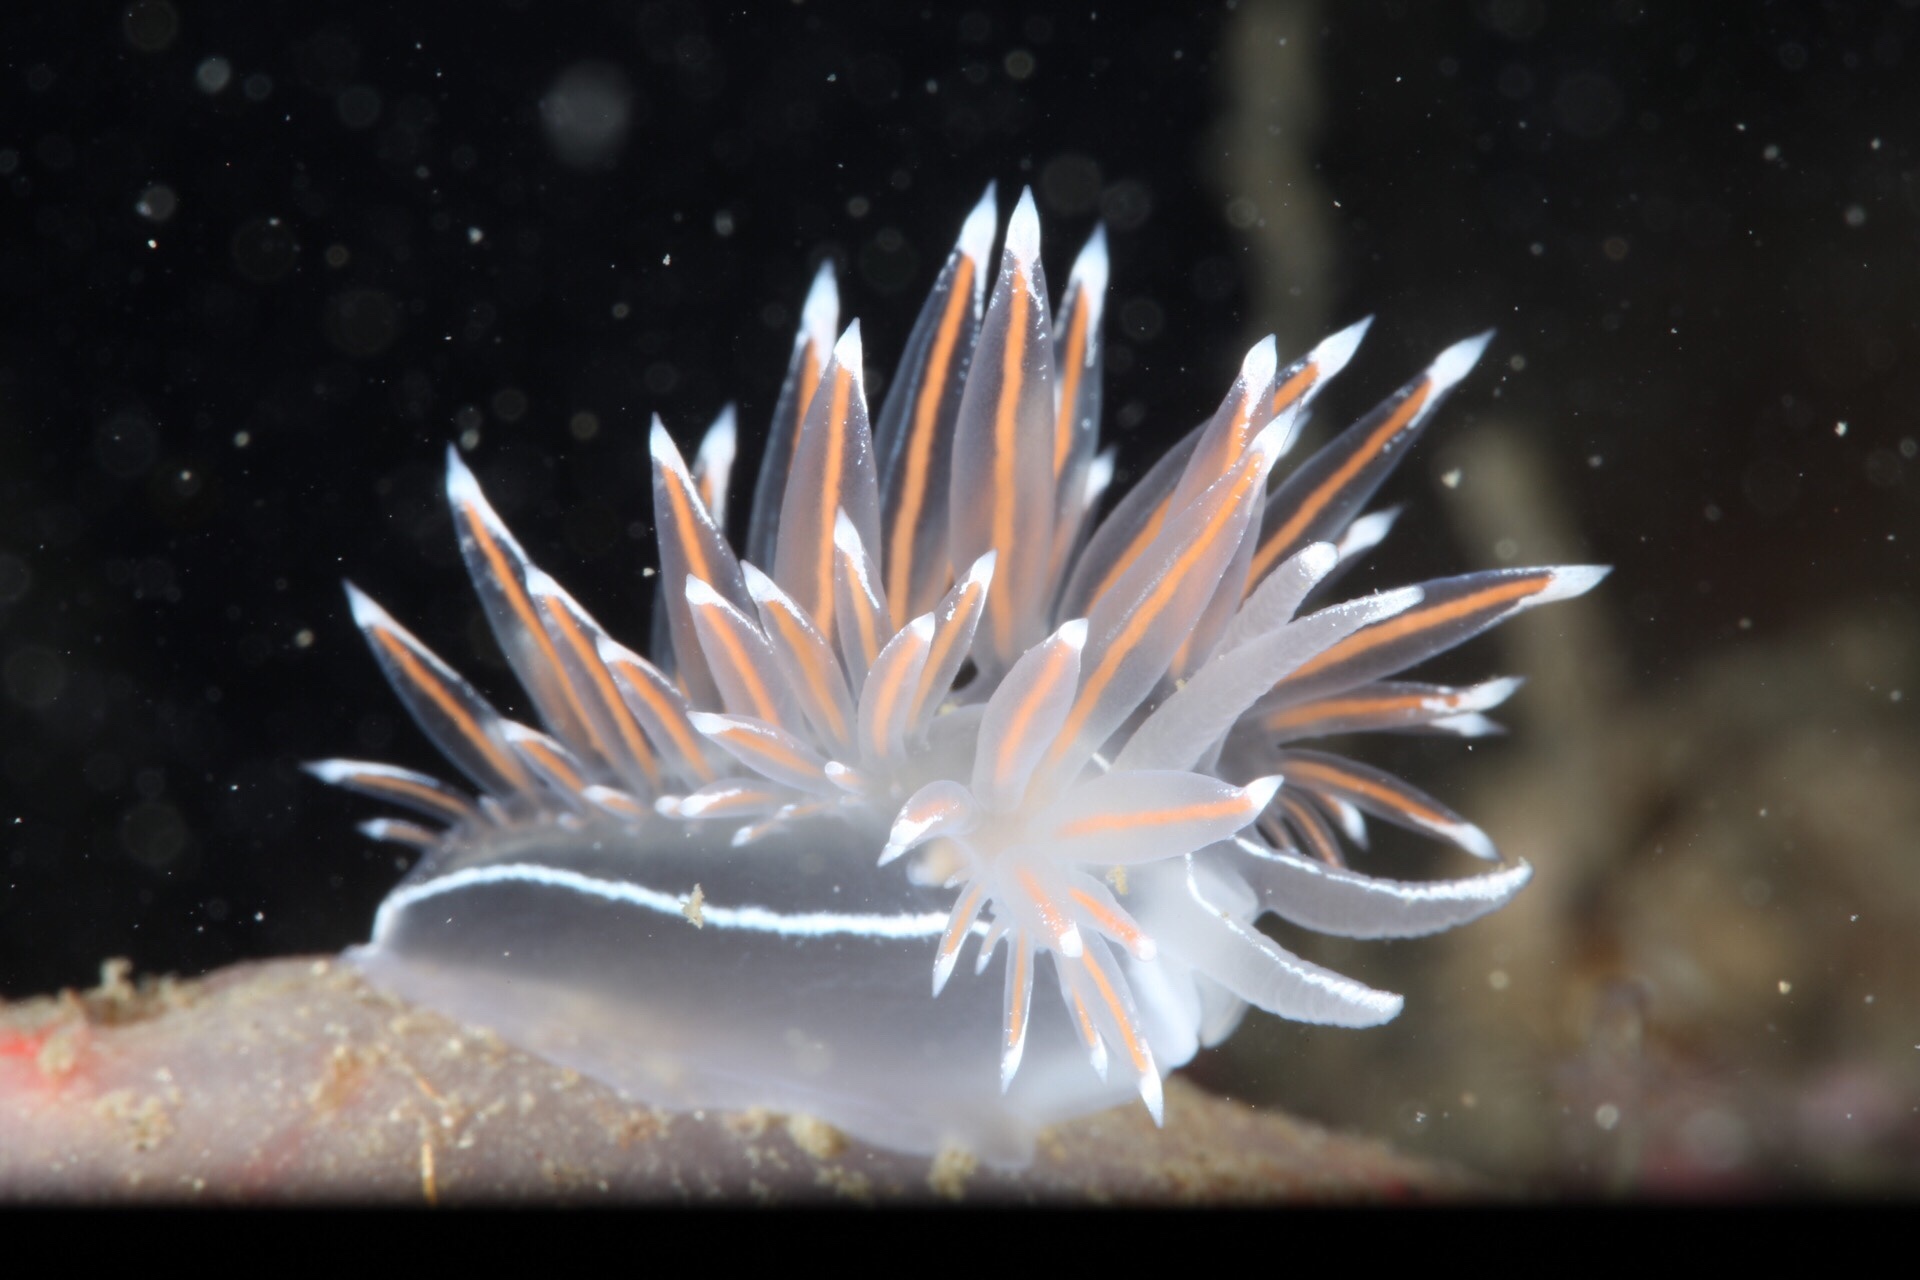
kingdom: Animalia
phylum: Mollusca
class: Gastropoda
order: Nudibranchia
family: Coryphellidae
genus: Coryphella
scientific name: Coryphella lineata
